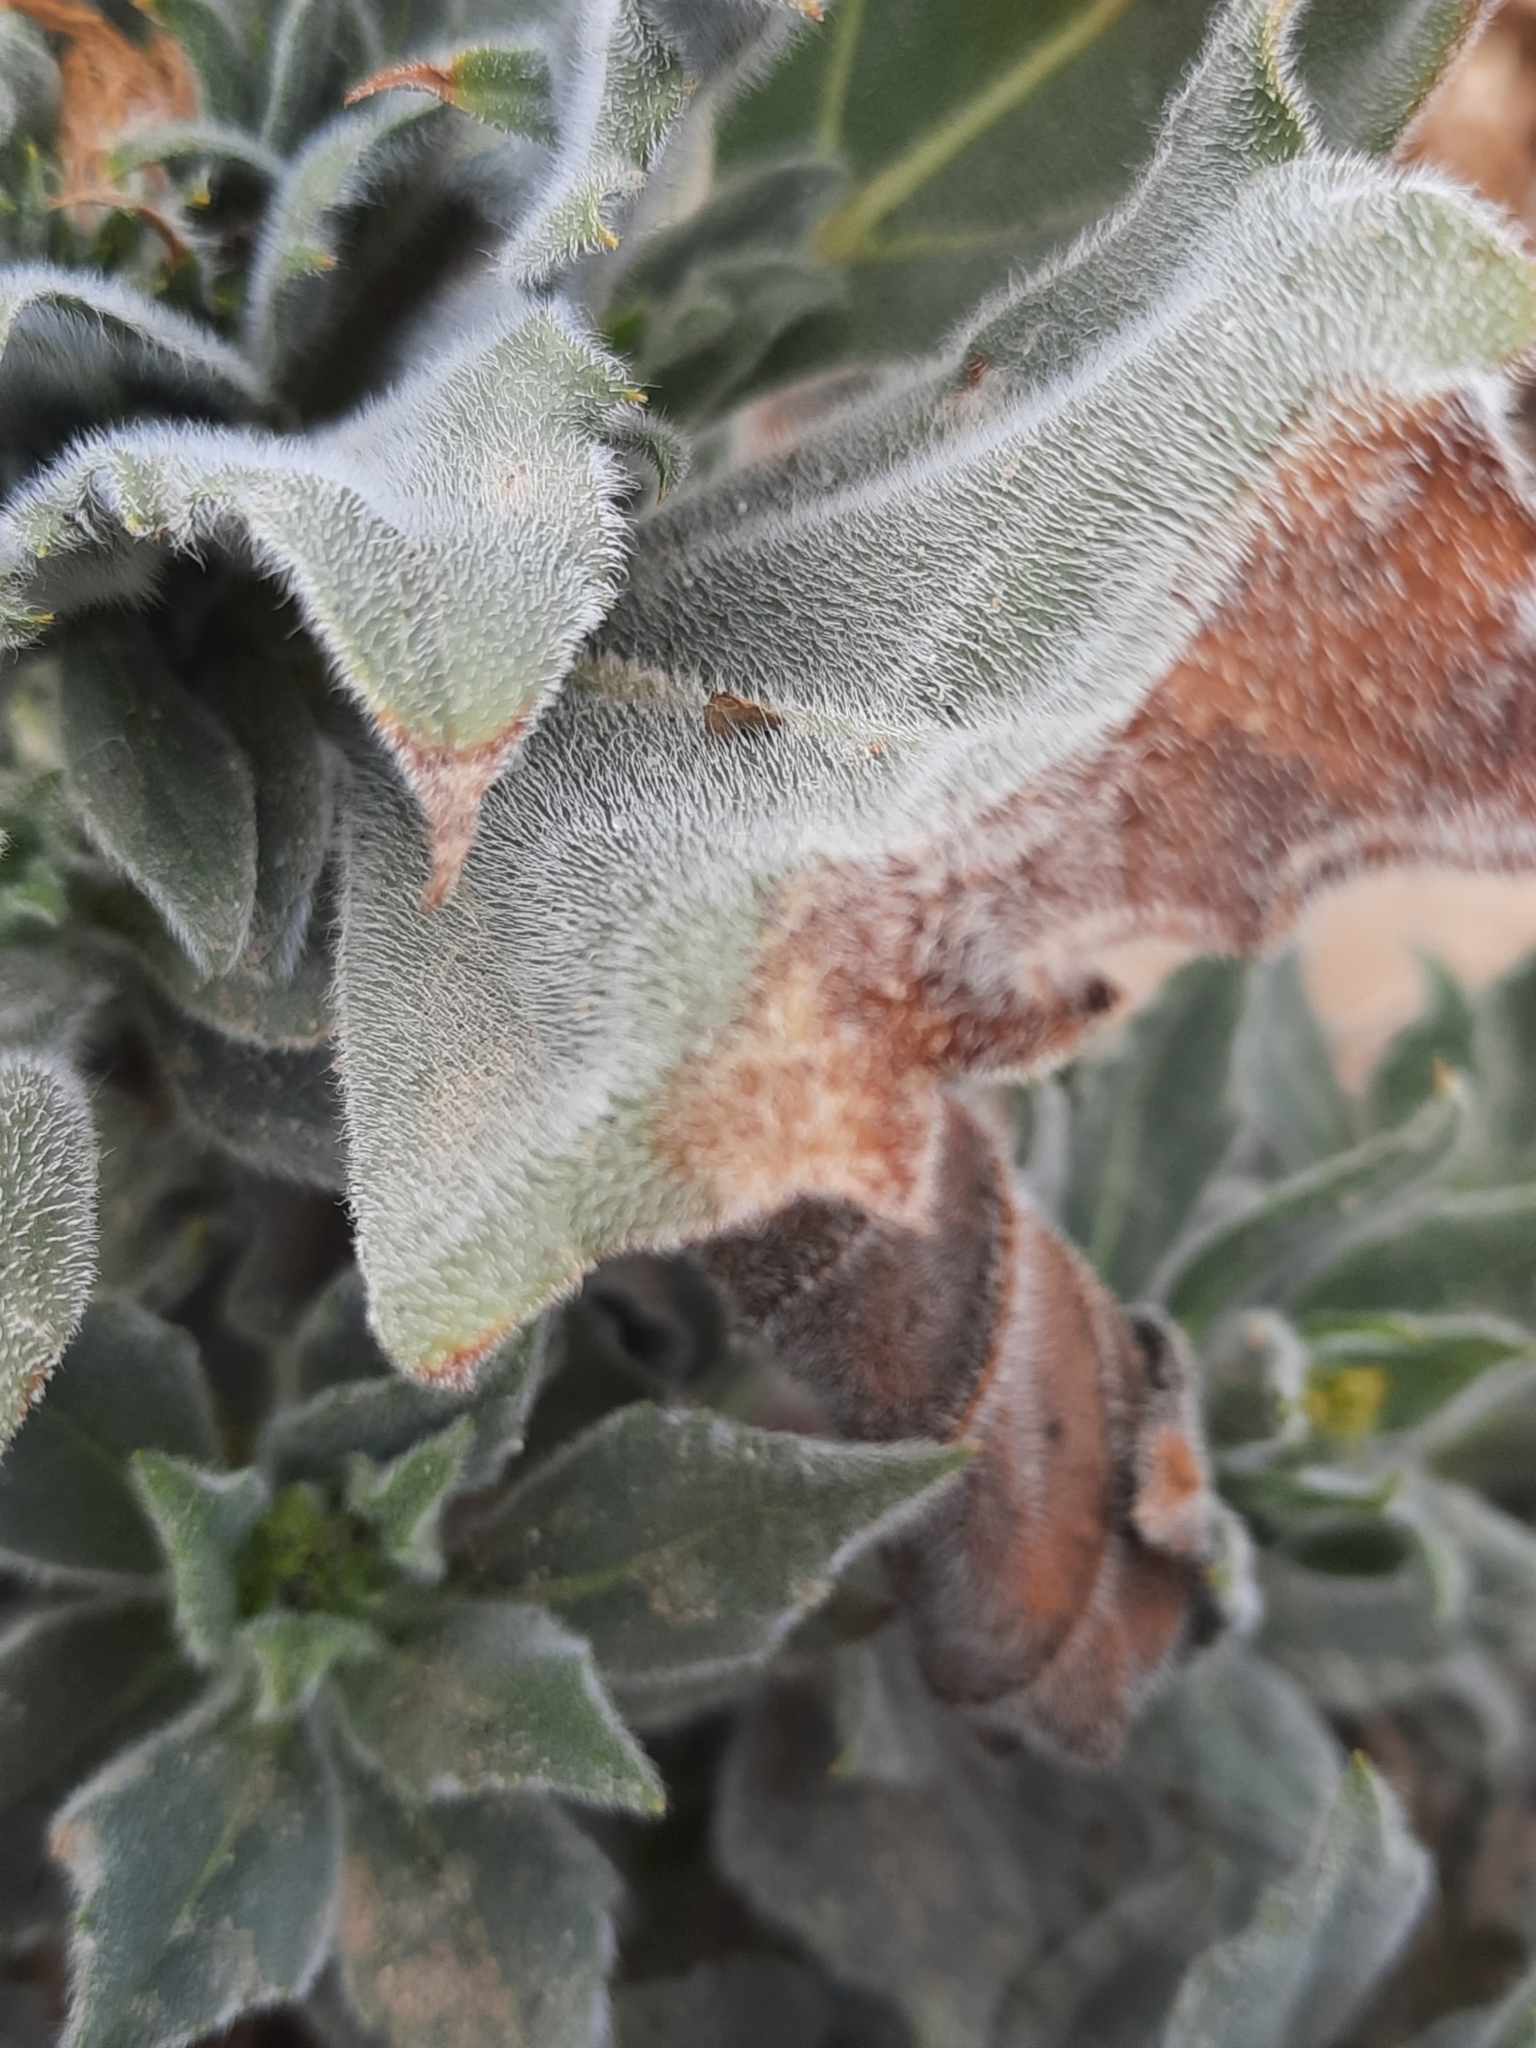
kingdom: Plantae
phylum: Tracheophyta
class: Magnoliopsida
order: Asterales
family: Asteraceae
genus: Geraea
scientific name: Geraea canescens
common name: Desert-gold
